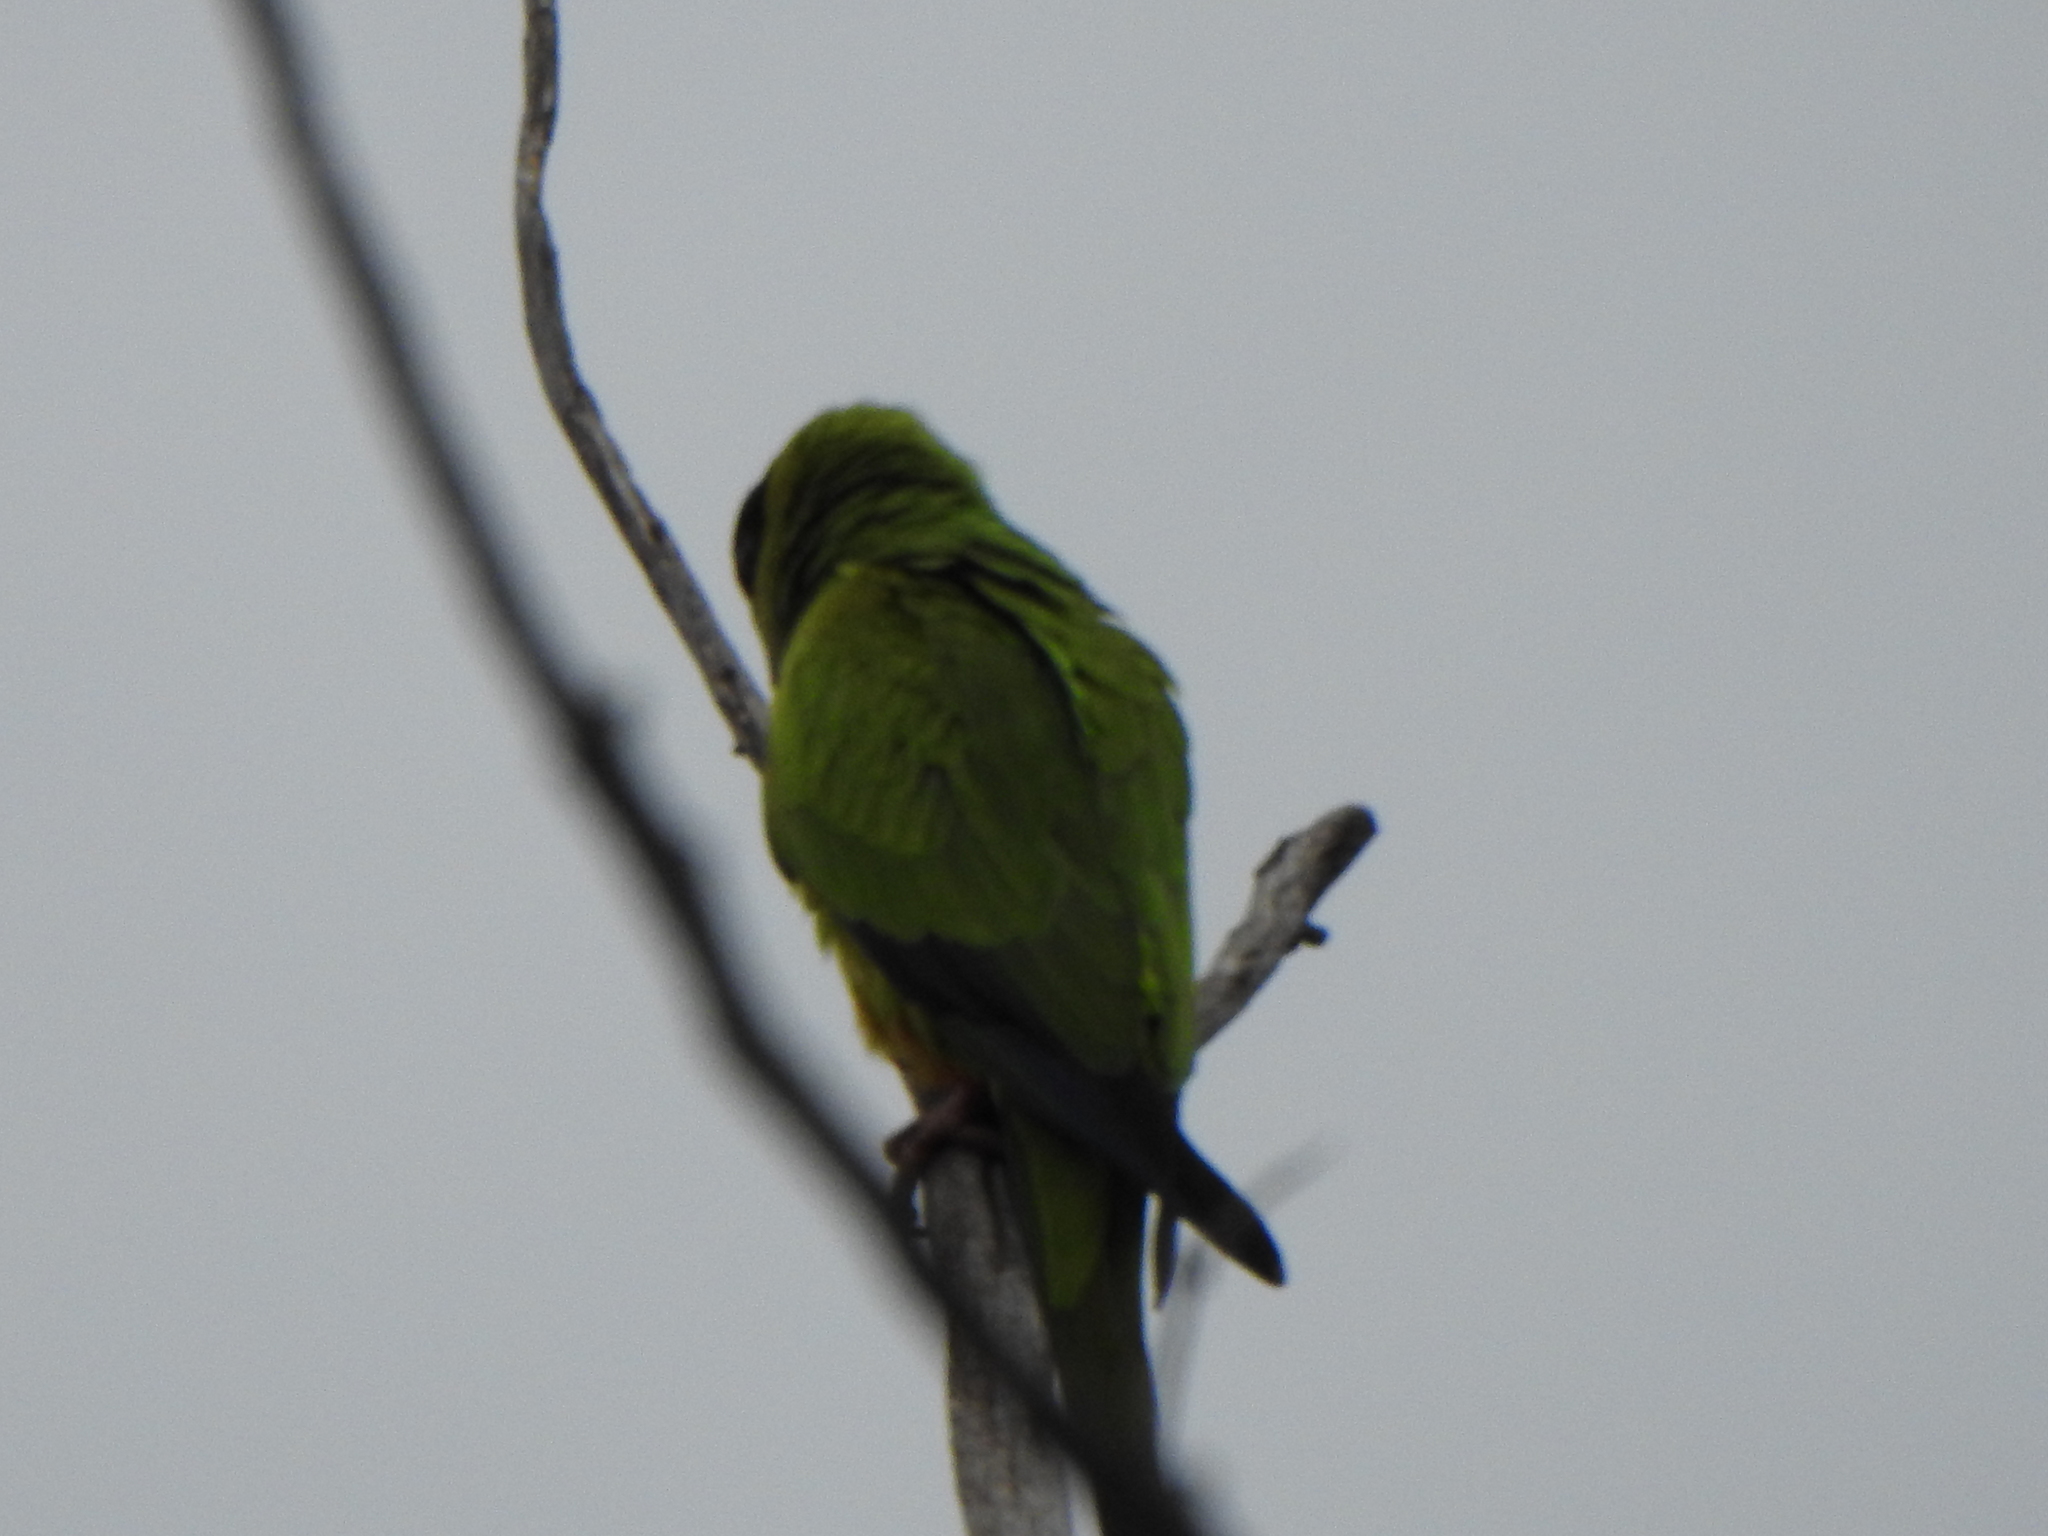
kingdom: Animalia
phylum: Chordata
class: Aves
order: Psittaciformes
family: Psittacidae
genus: Nandayus
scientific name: Nandayus nenday
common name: Nanday parakeet
